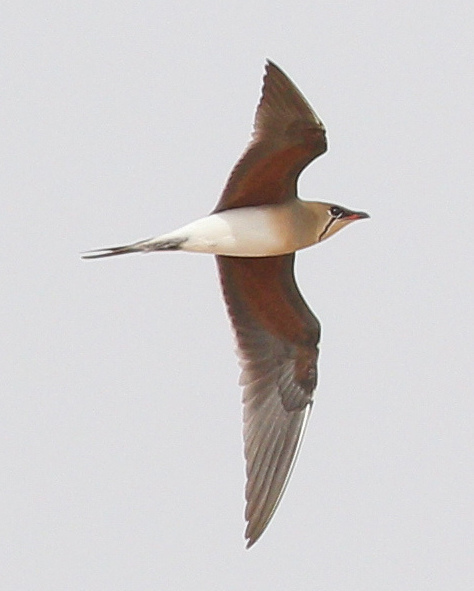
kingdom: Animalia
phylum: Chordata
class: Aves
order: Charadriiformes
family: Glareolidae
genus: Glareola
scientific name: Glareola pratincola
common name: Collared pratincole
